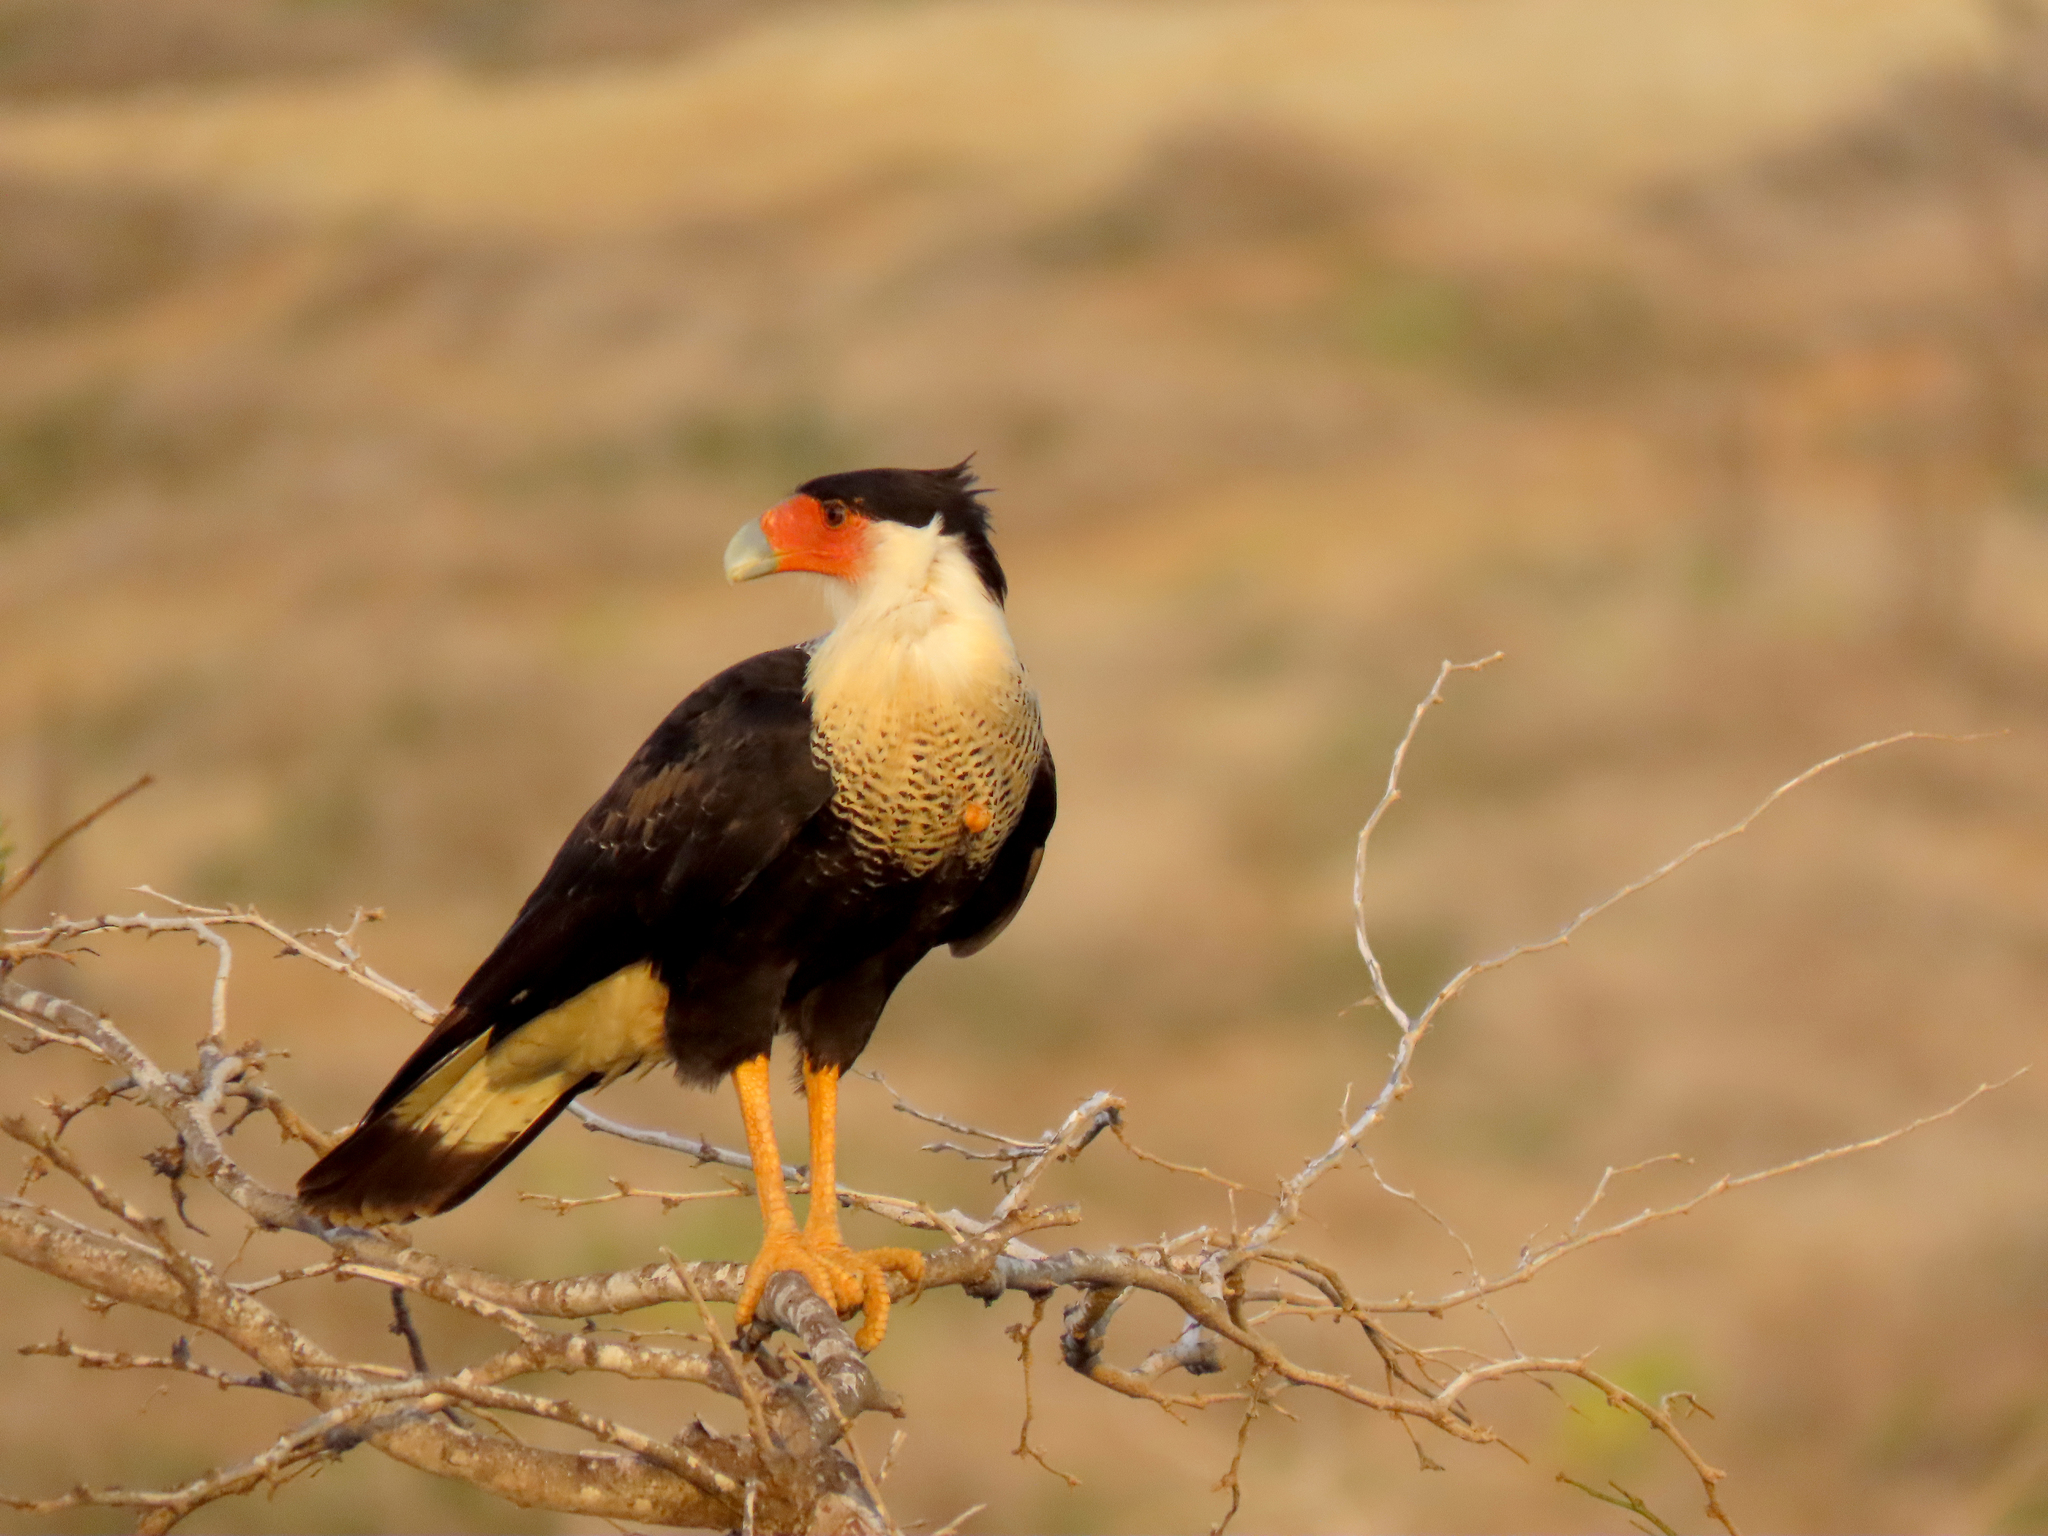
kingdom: Animalia
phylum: Chordata
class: Aves
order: Falconiformes
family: Falconidae
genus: Caracara
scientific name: Caracara plancus
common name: Southern caracara
